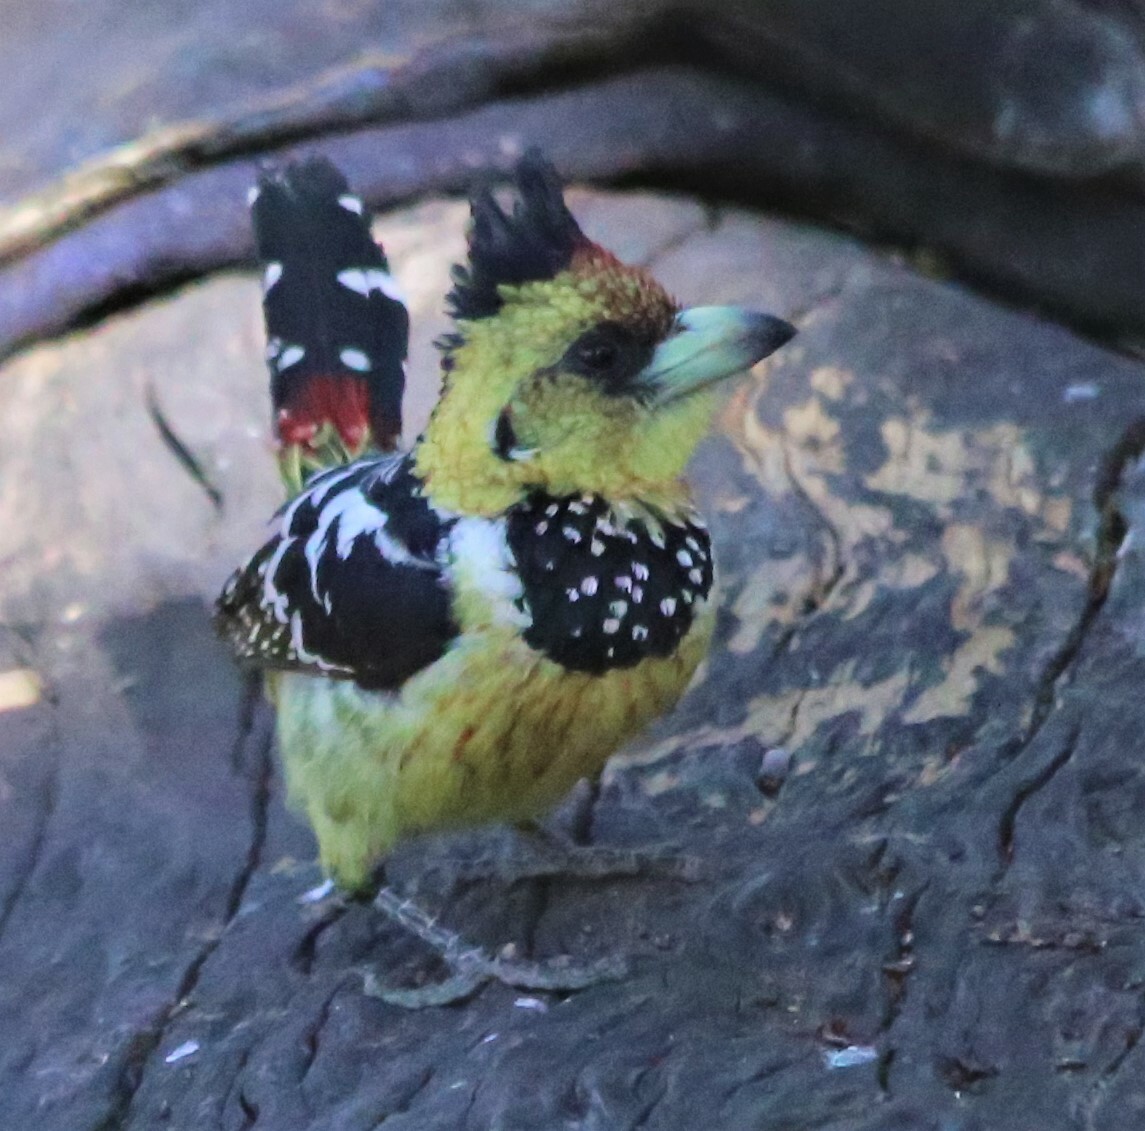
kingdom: Animalia
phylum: Chordata
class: Aves
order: Piciformes
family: Lybiidae
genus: Trachyphonus
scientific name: Trachyphonus vaillantii
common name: Crested barbet
